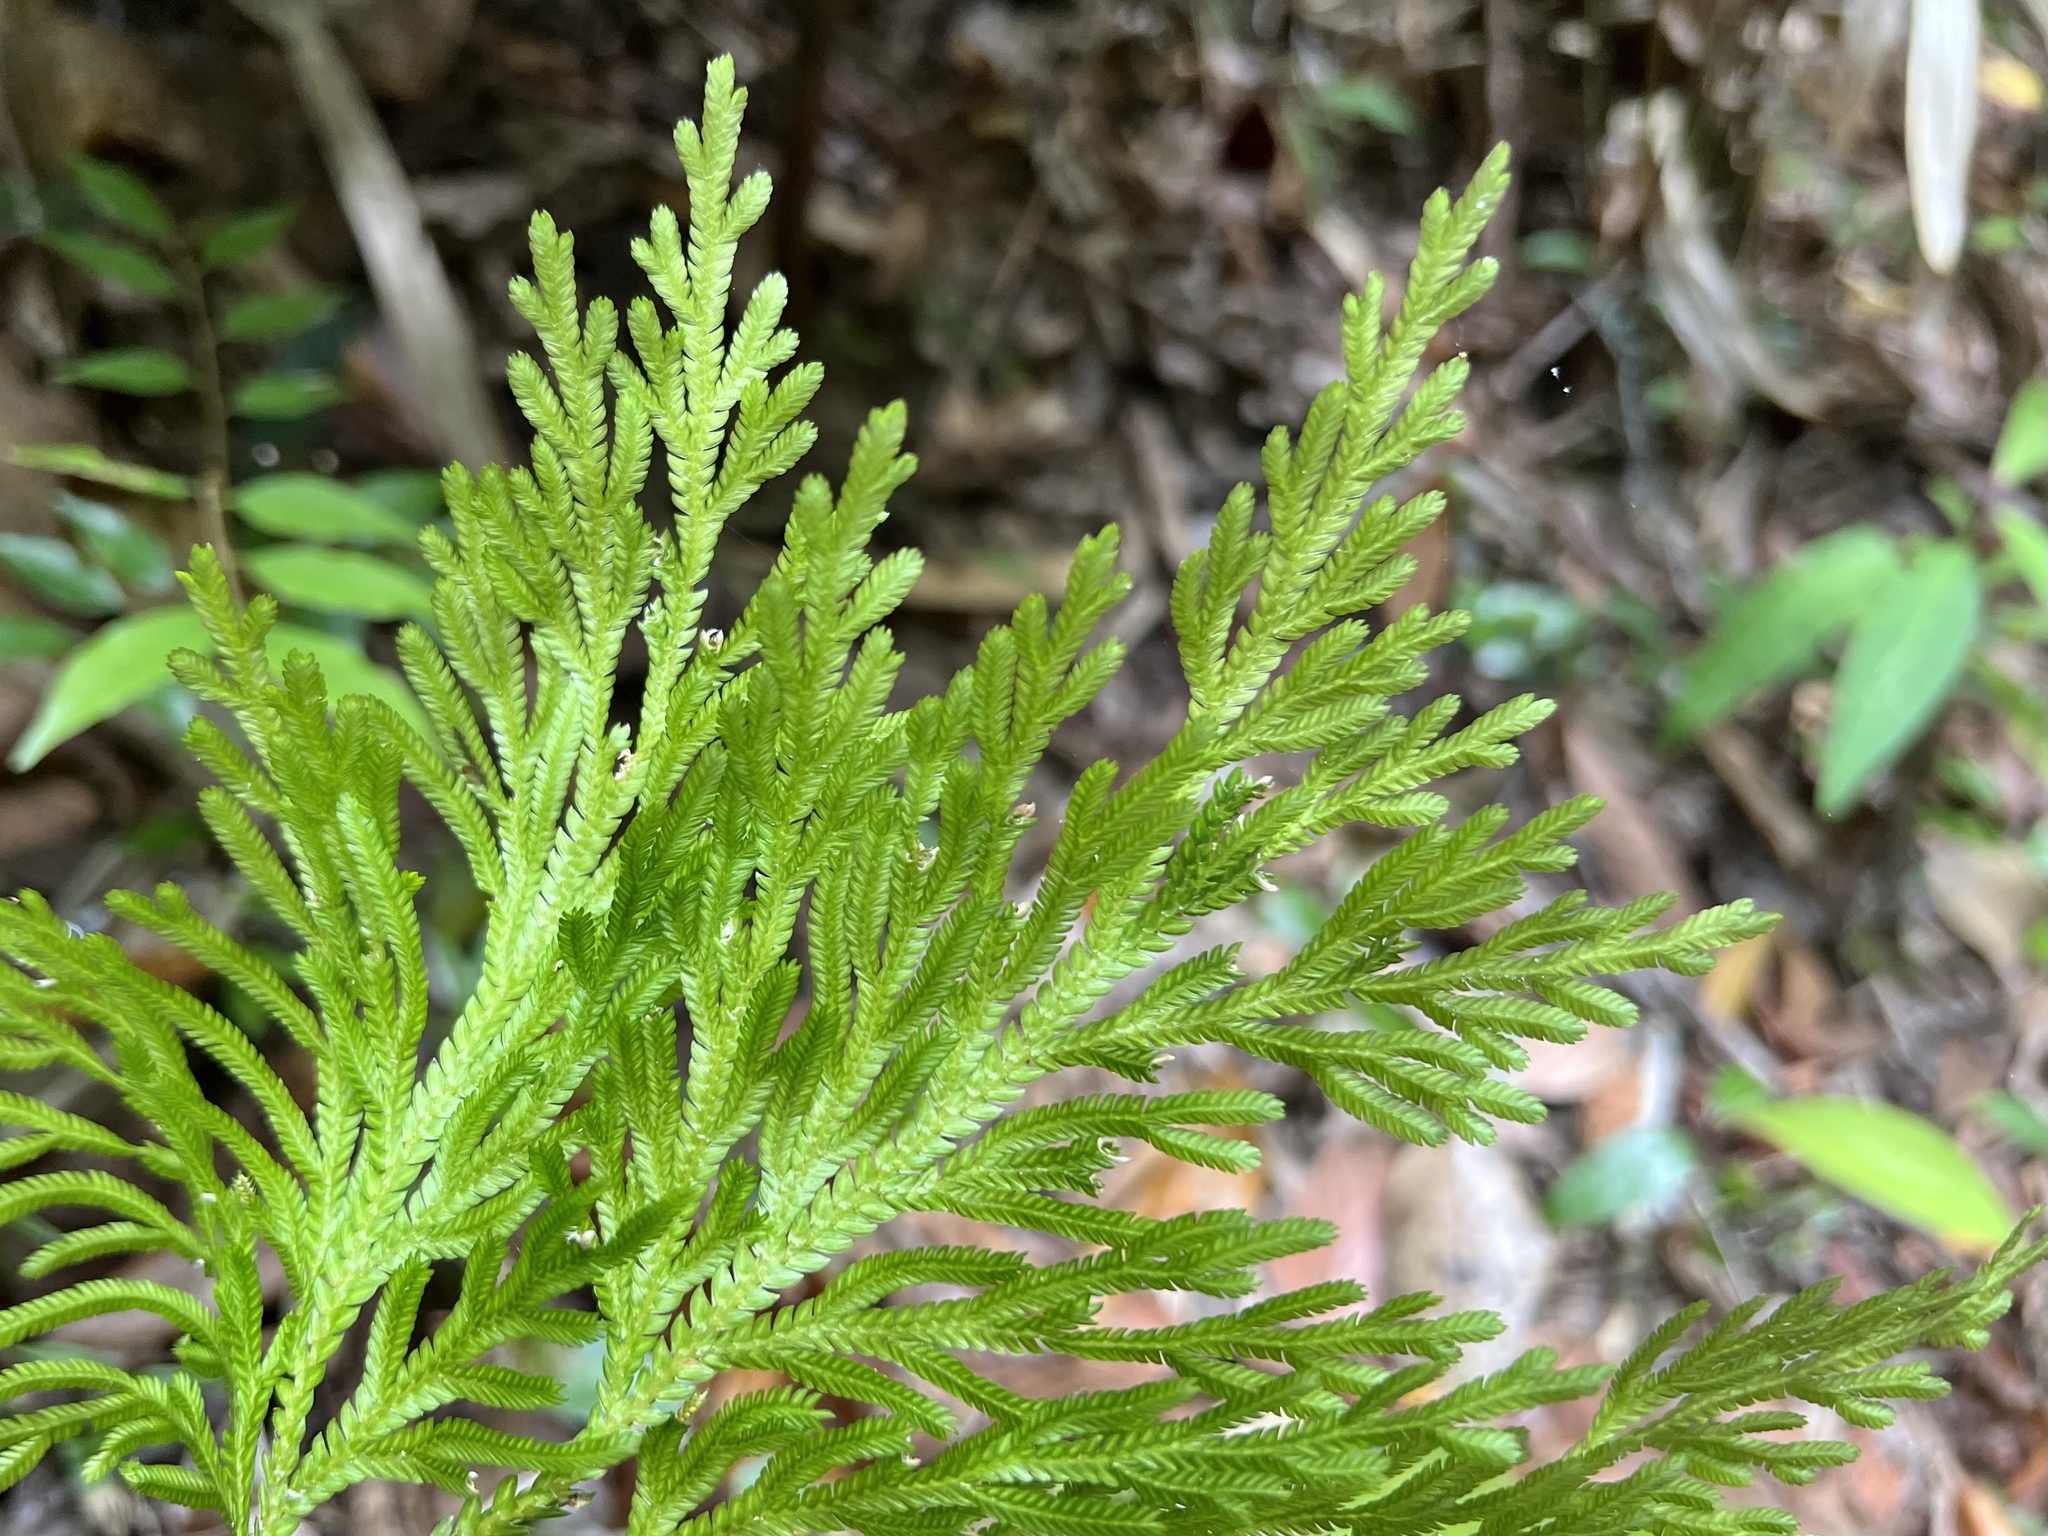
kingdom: Plantae
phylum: Tracheophyta
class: Lycopodiopsida
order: Selaginellales
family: Selaginellaceae
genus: Selaginella
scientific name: Selaginella longipinna
